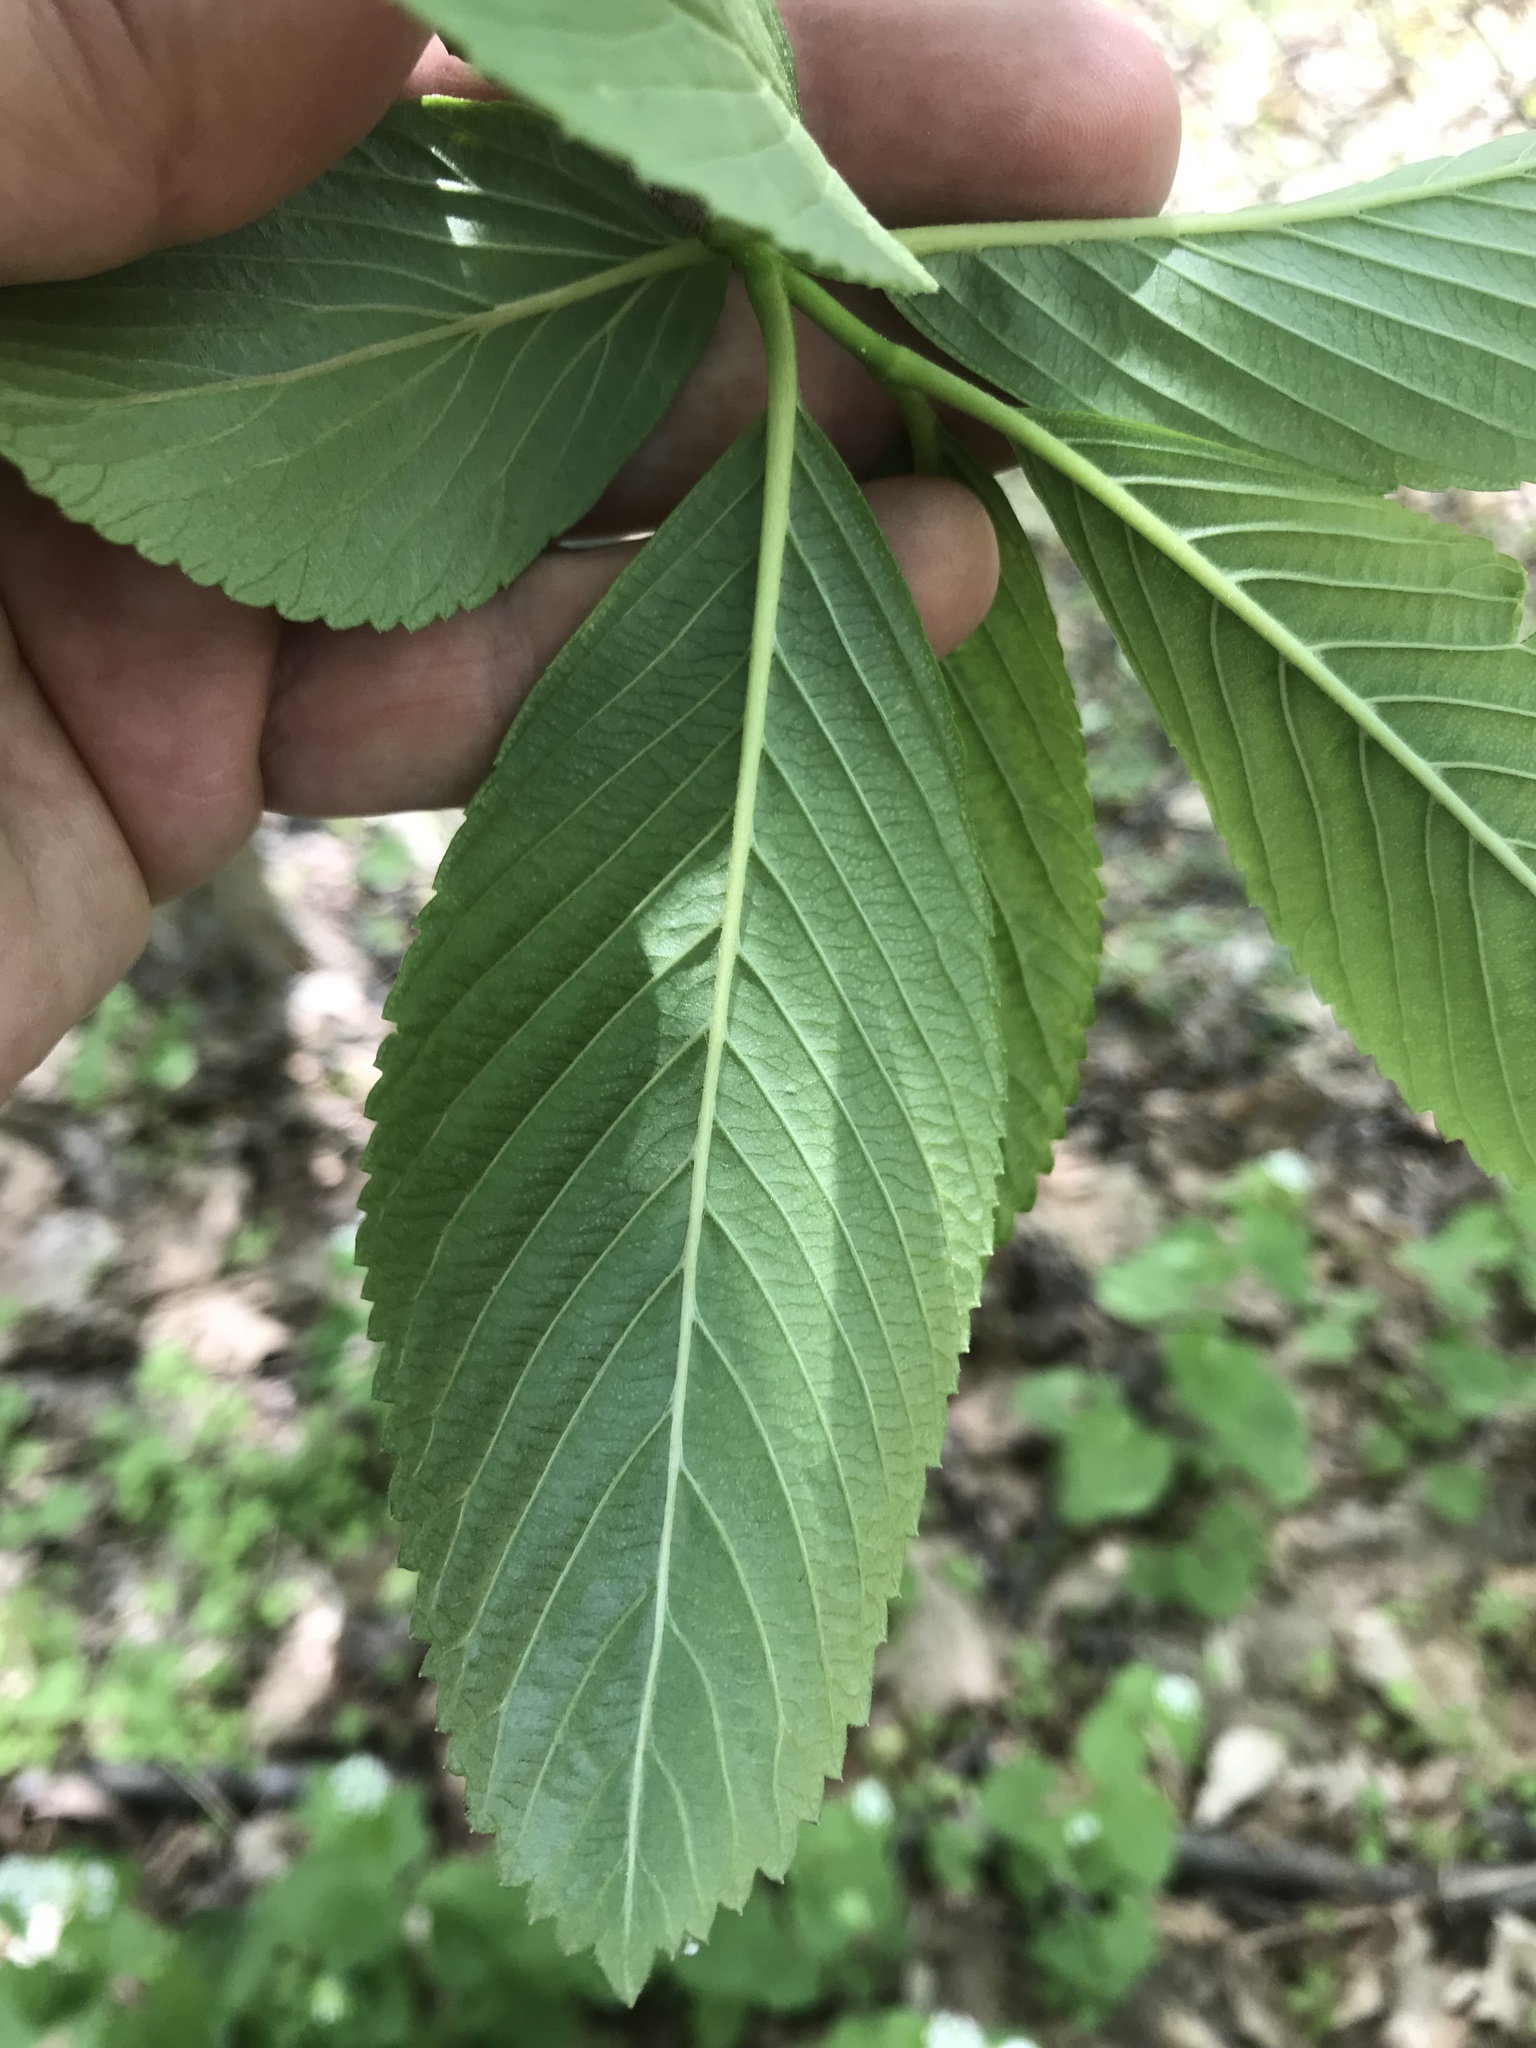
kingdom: Plantae
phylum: Tracheophyta
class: Magnoliopsida
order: Dipsacales
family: Viburnaceae
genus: Viburnum
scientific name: Viburnum sieboldii
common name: Siebold's arrowwood
